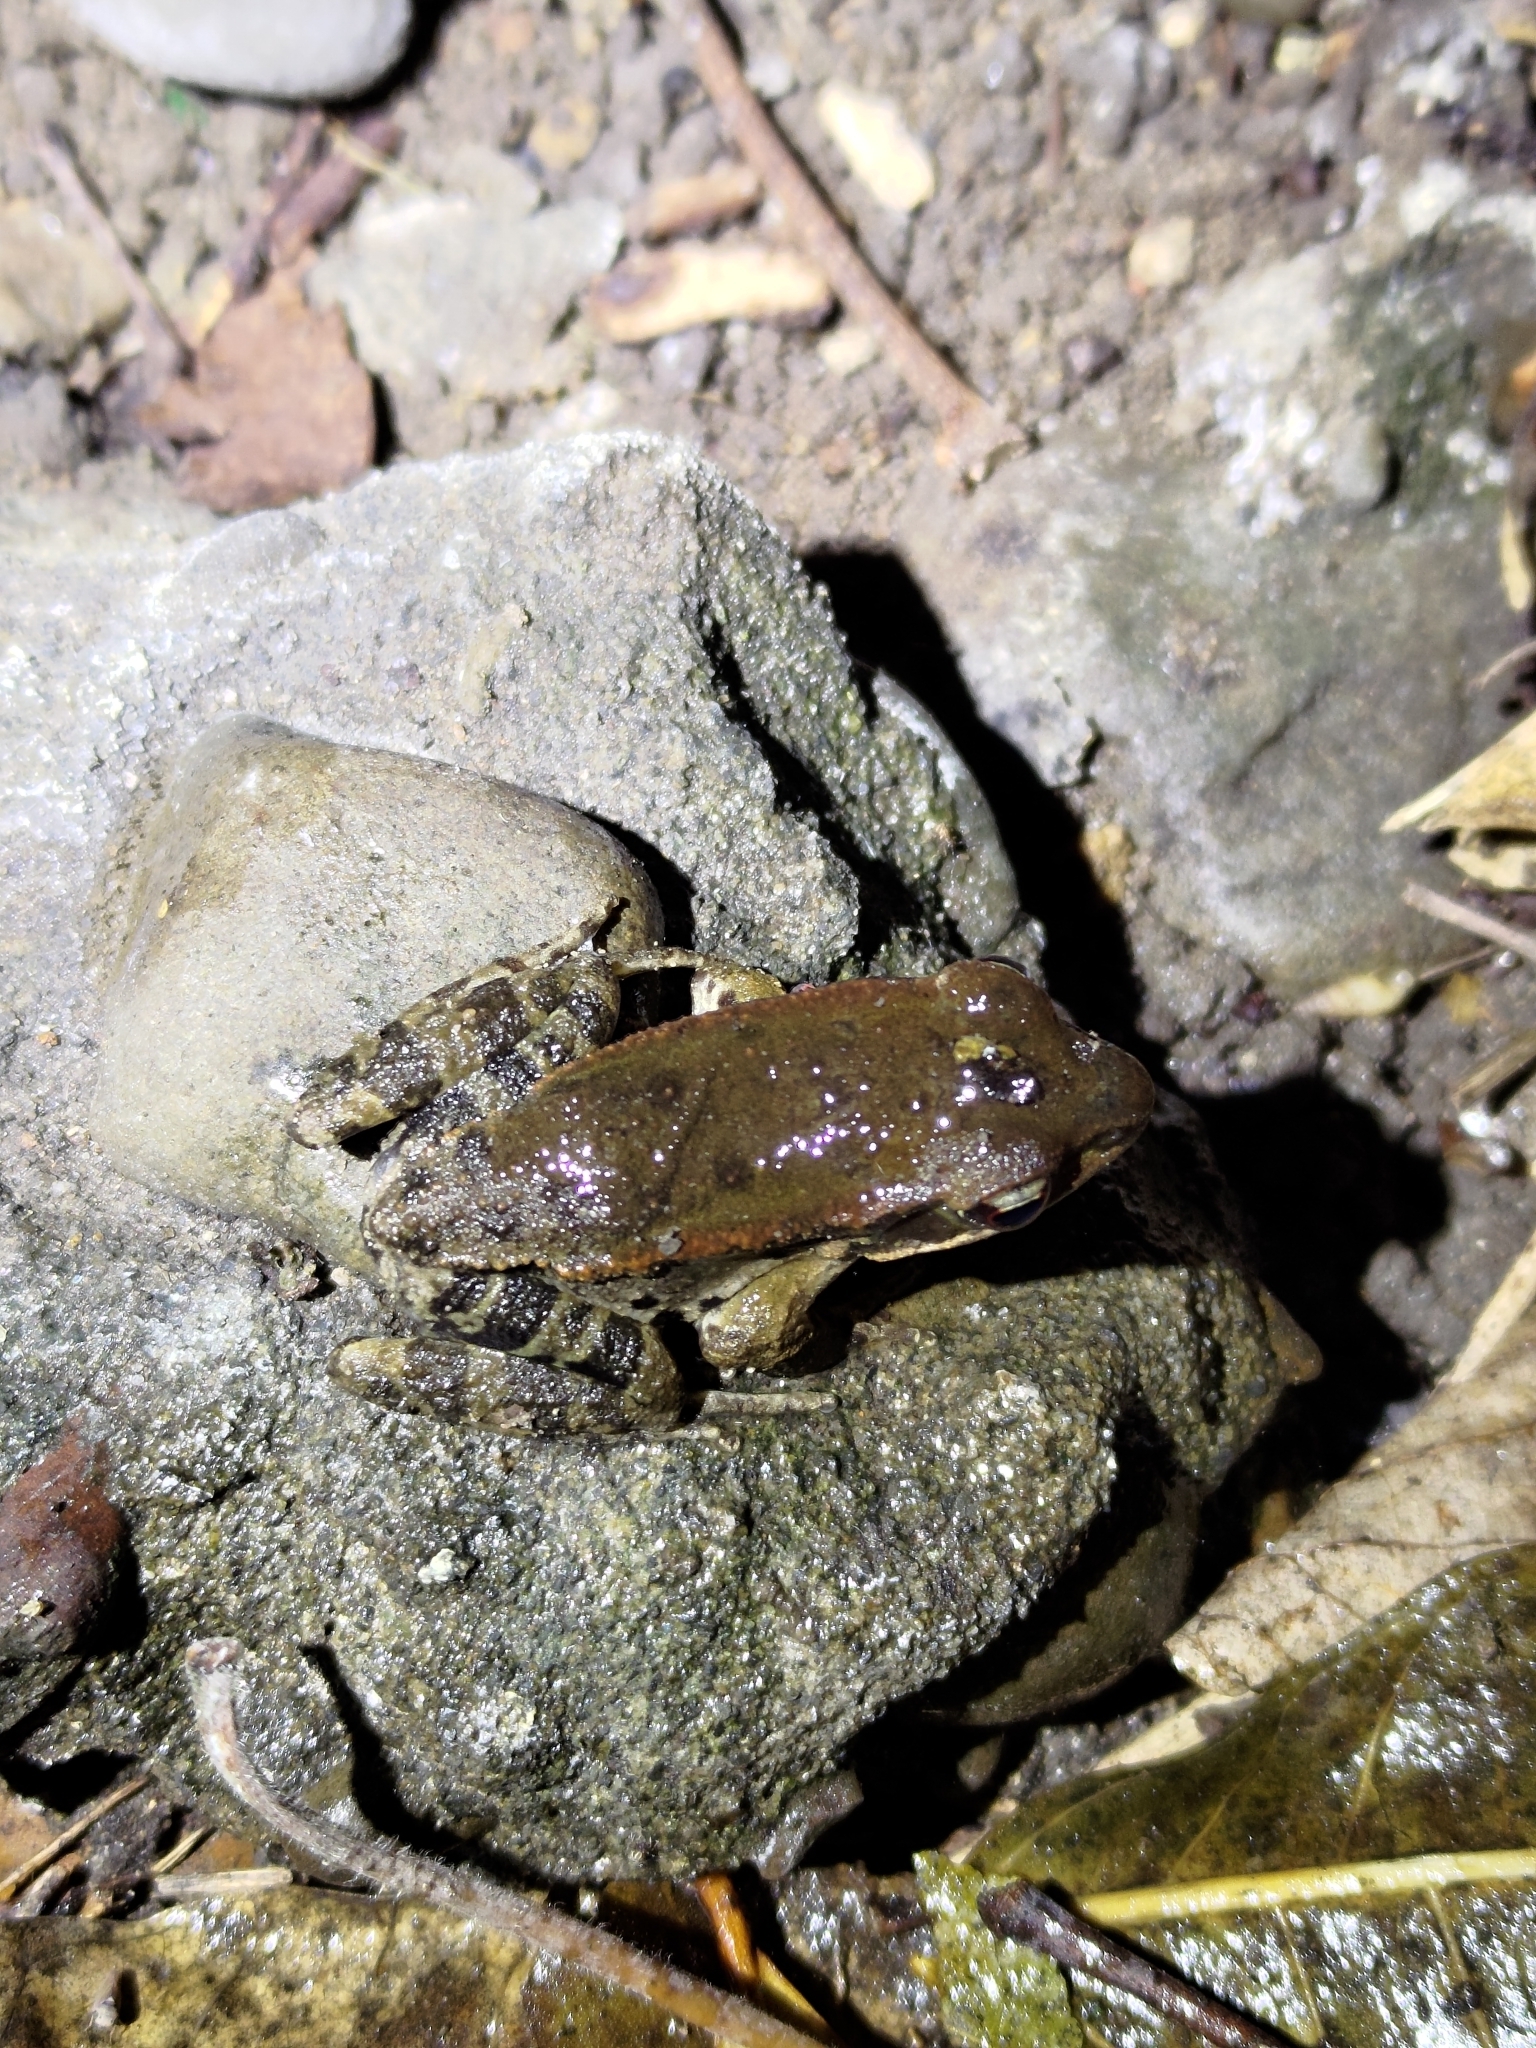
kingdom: Animalia
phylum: Chordata
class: Amphibia
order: Anura
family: Ranidae
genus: Hylarana
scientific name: Hylarana latouchii
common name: Broad-folded frog
